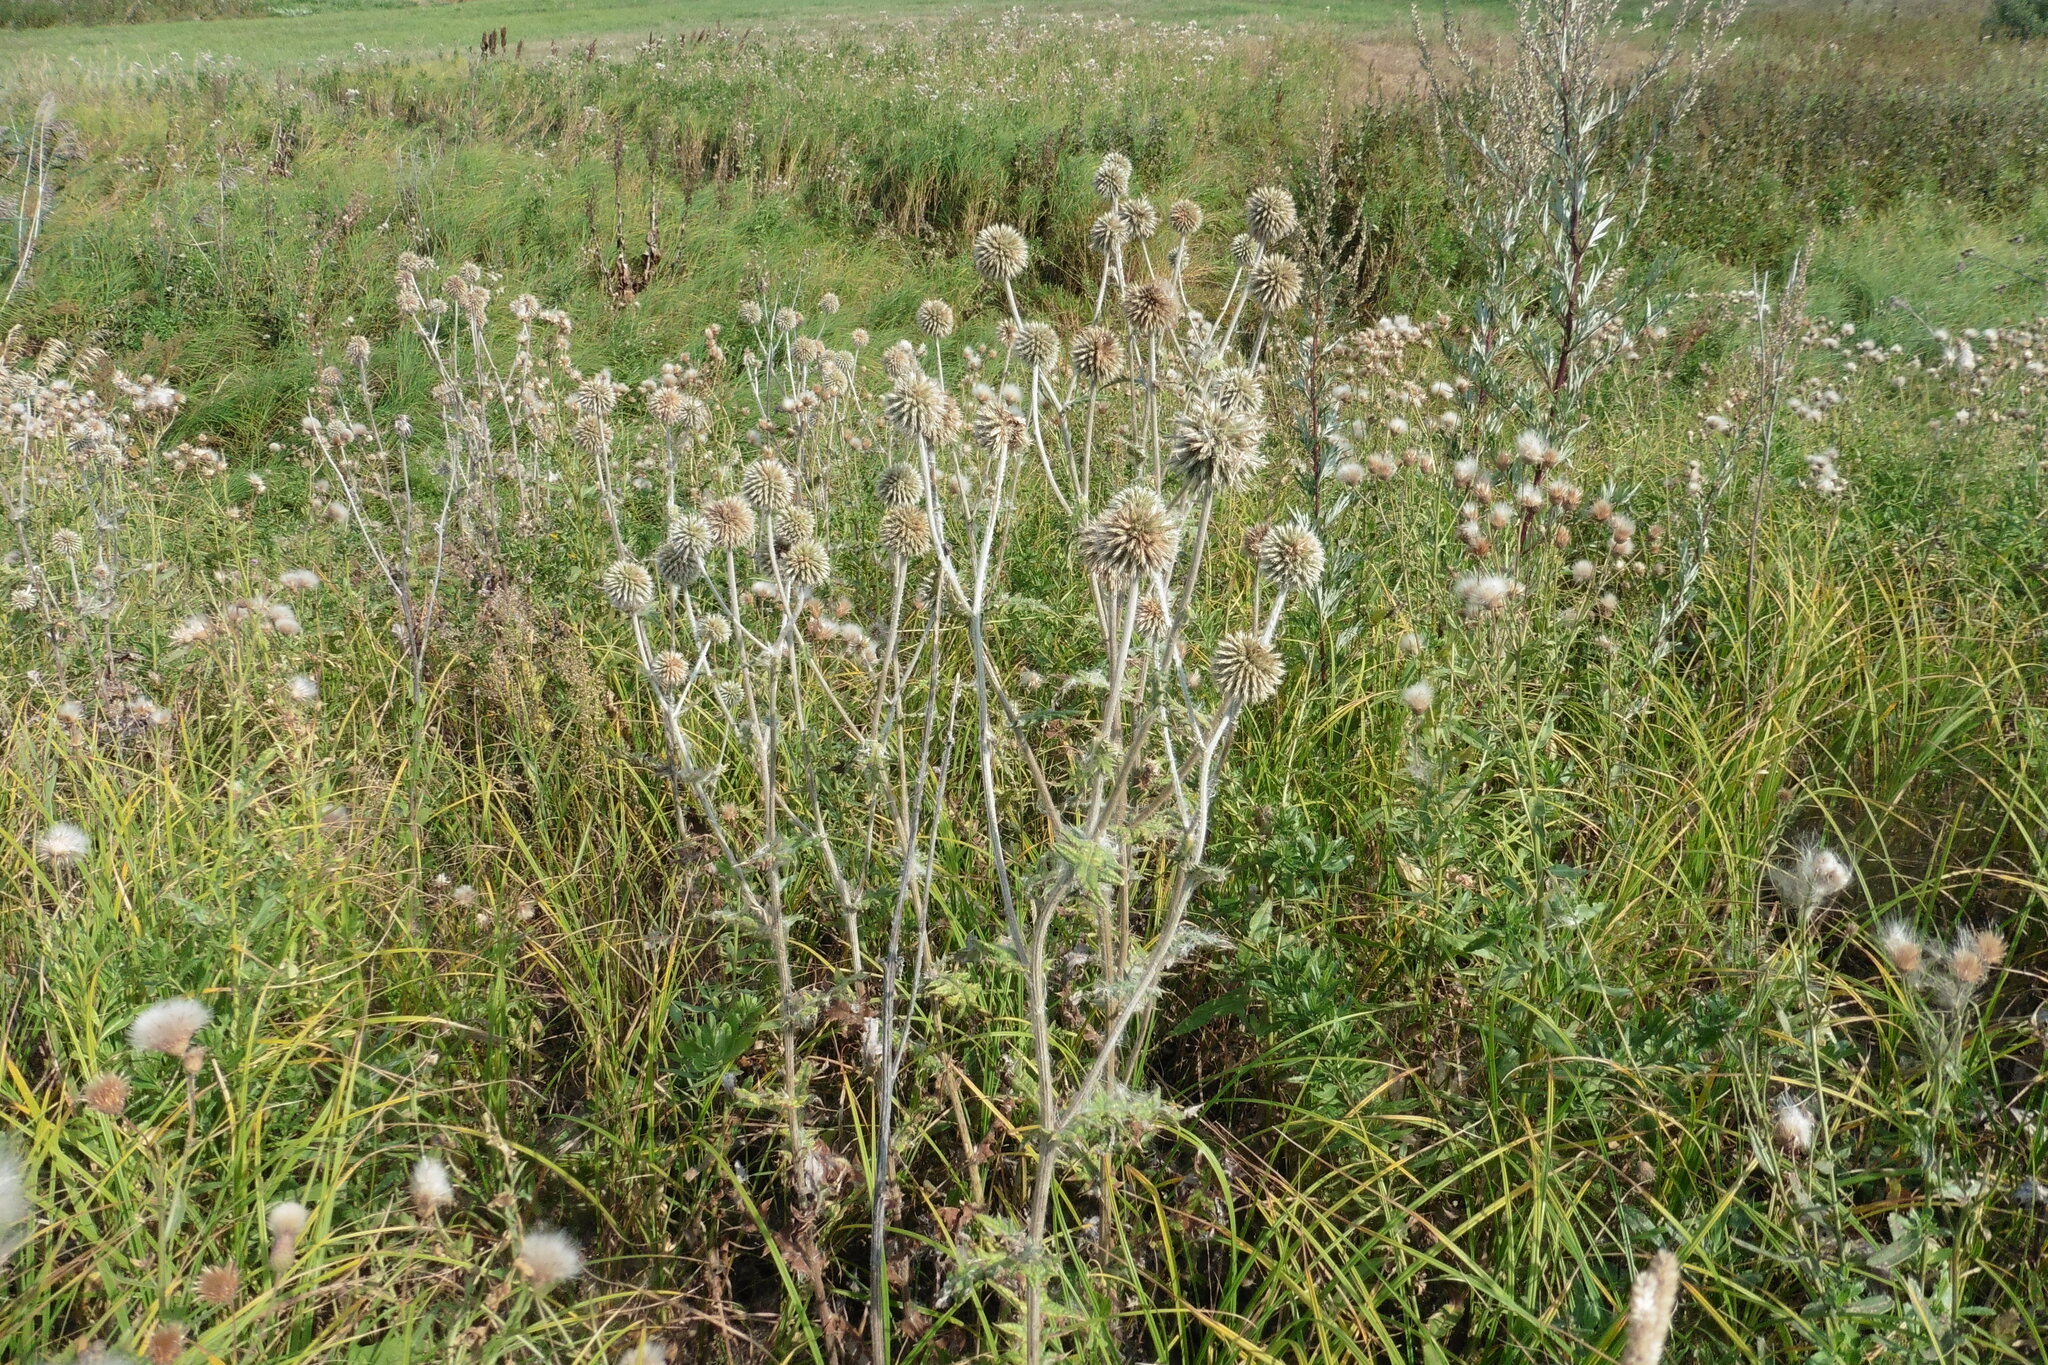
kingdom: Plantae
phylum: Tracheophyta
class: Magnoliopsida
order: Asterales
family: Asteraceae
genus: Echinops
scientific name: Echinops sphaerocephalus
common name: Glandular globe-thistle
